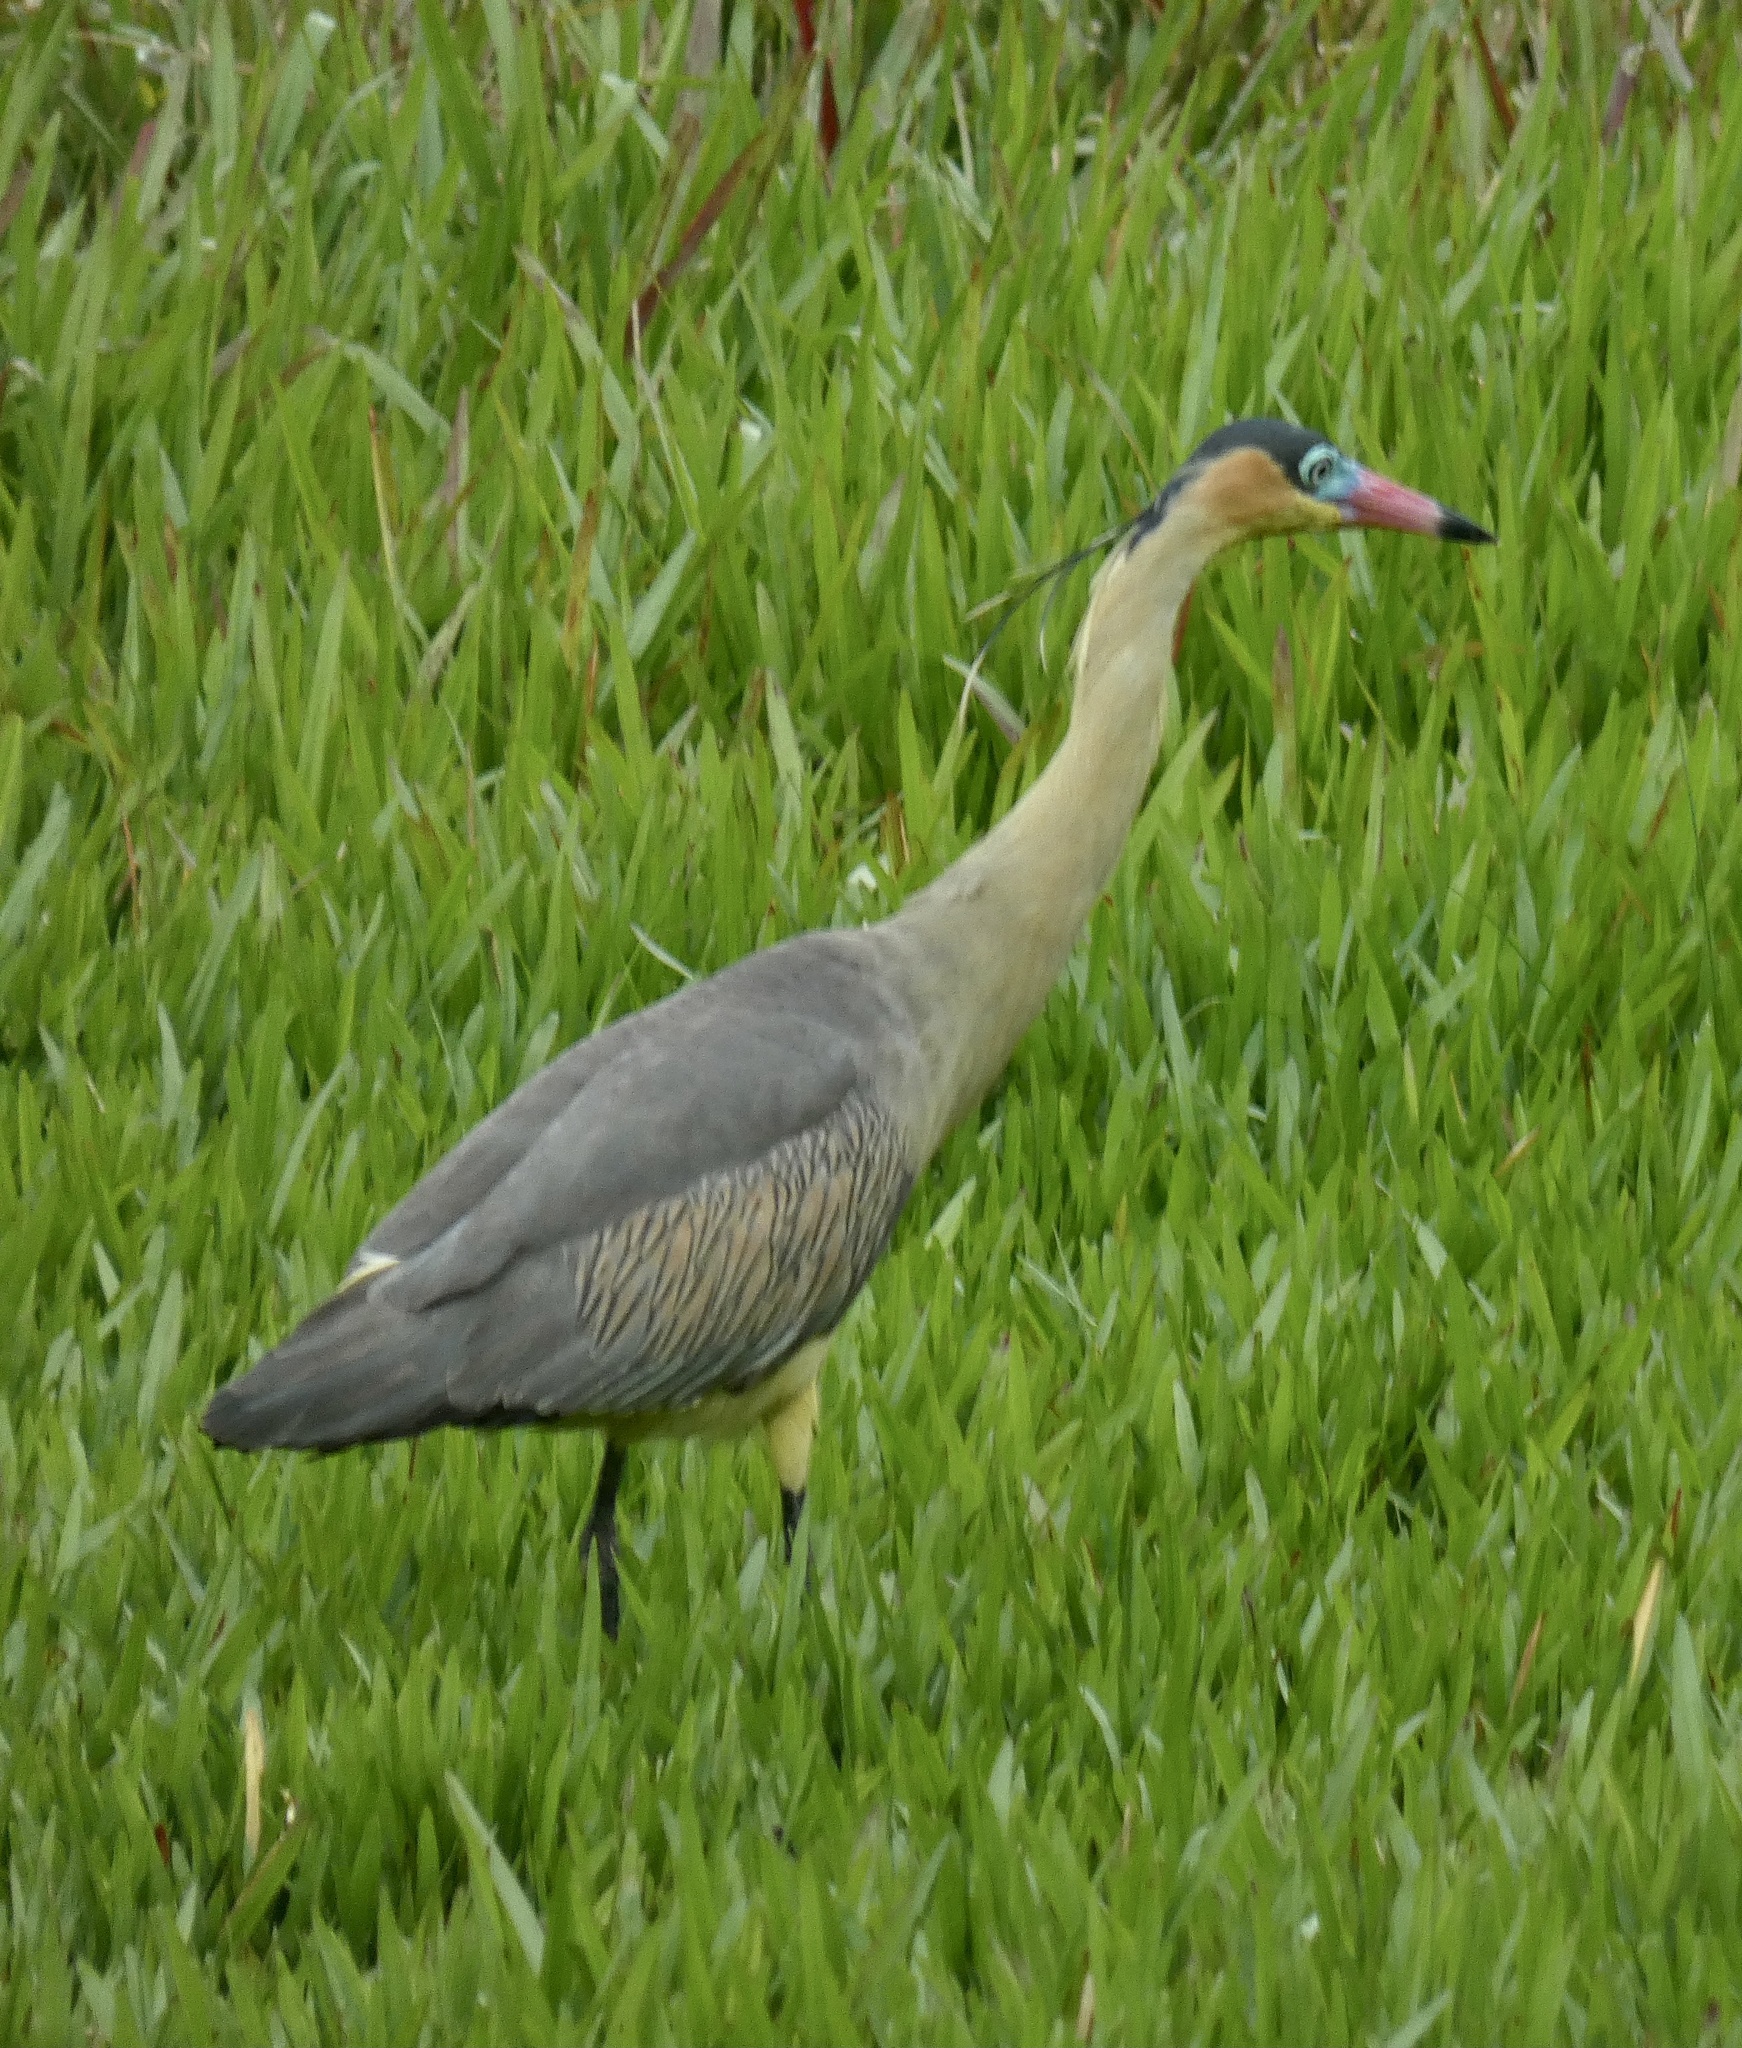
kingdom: Animalia
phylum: Chordata
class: Aves
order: Pelecaniformes
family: Ardeidae
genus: Syrigma
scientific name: Syrigma sibilatrix
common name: Whistling heron
